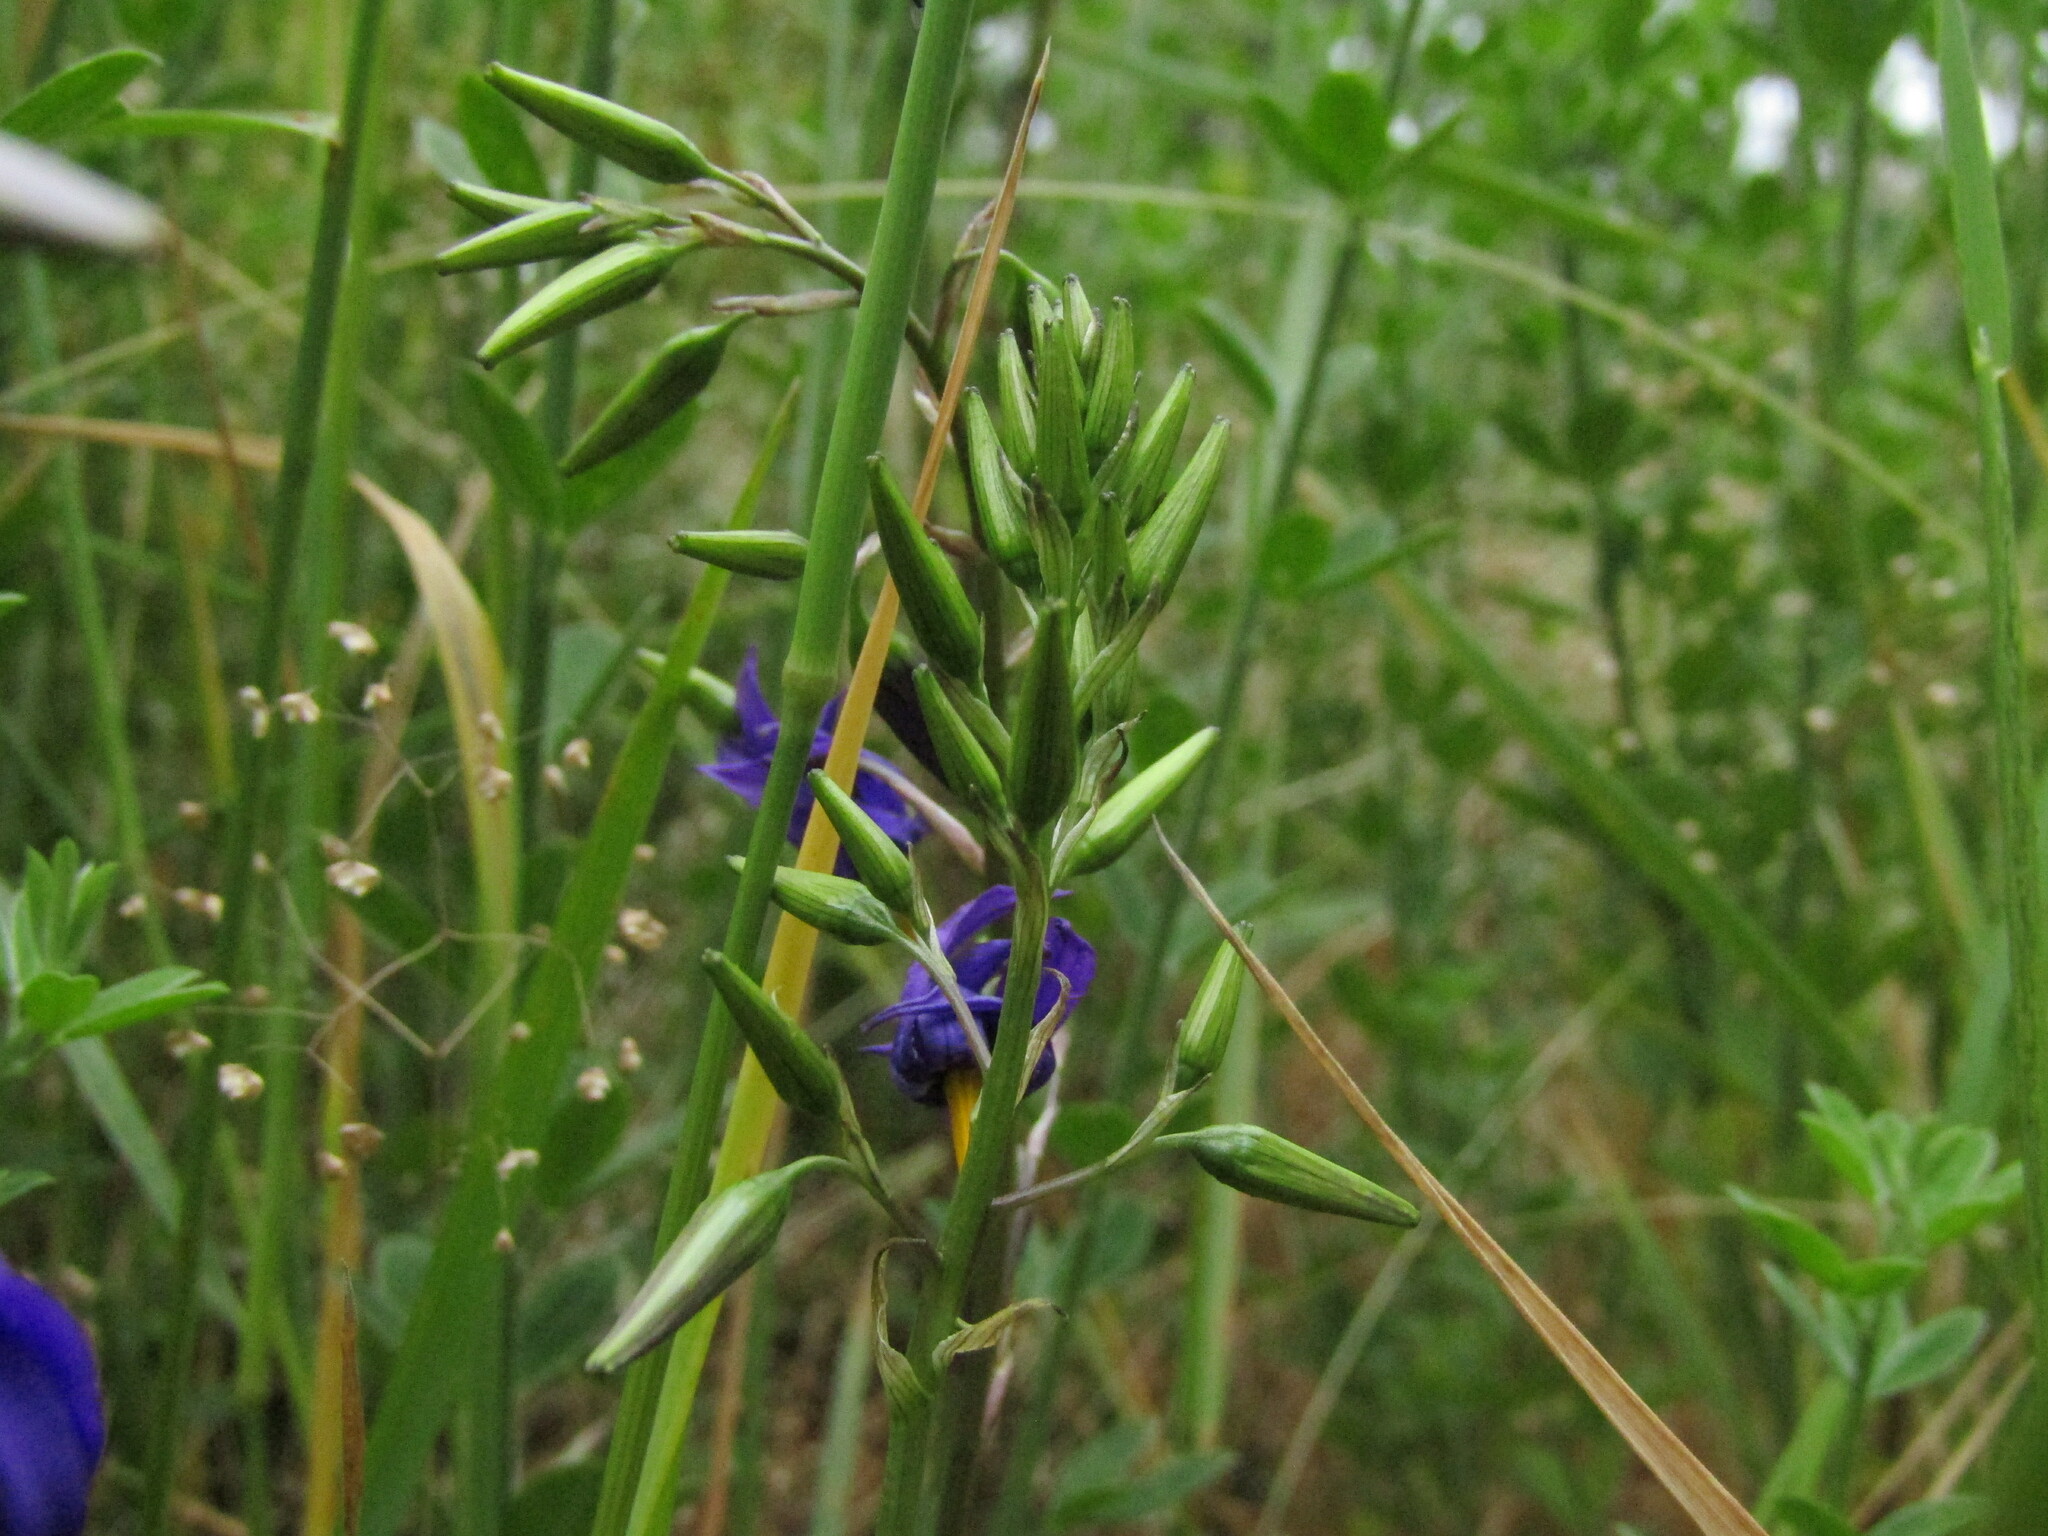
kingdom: Plantae
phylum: Tracheophyta
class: Liliopsida
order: Asparagales
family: Tecophilaeaceae
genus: Conanthera
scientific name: Conanthera bifolia
